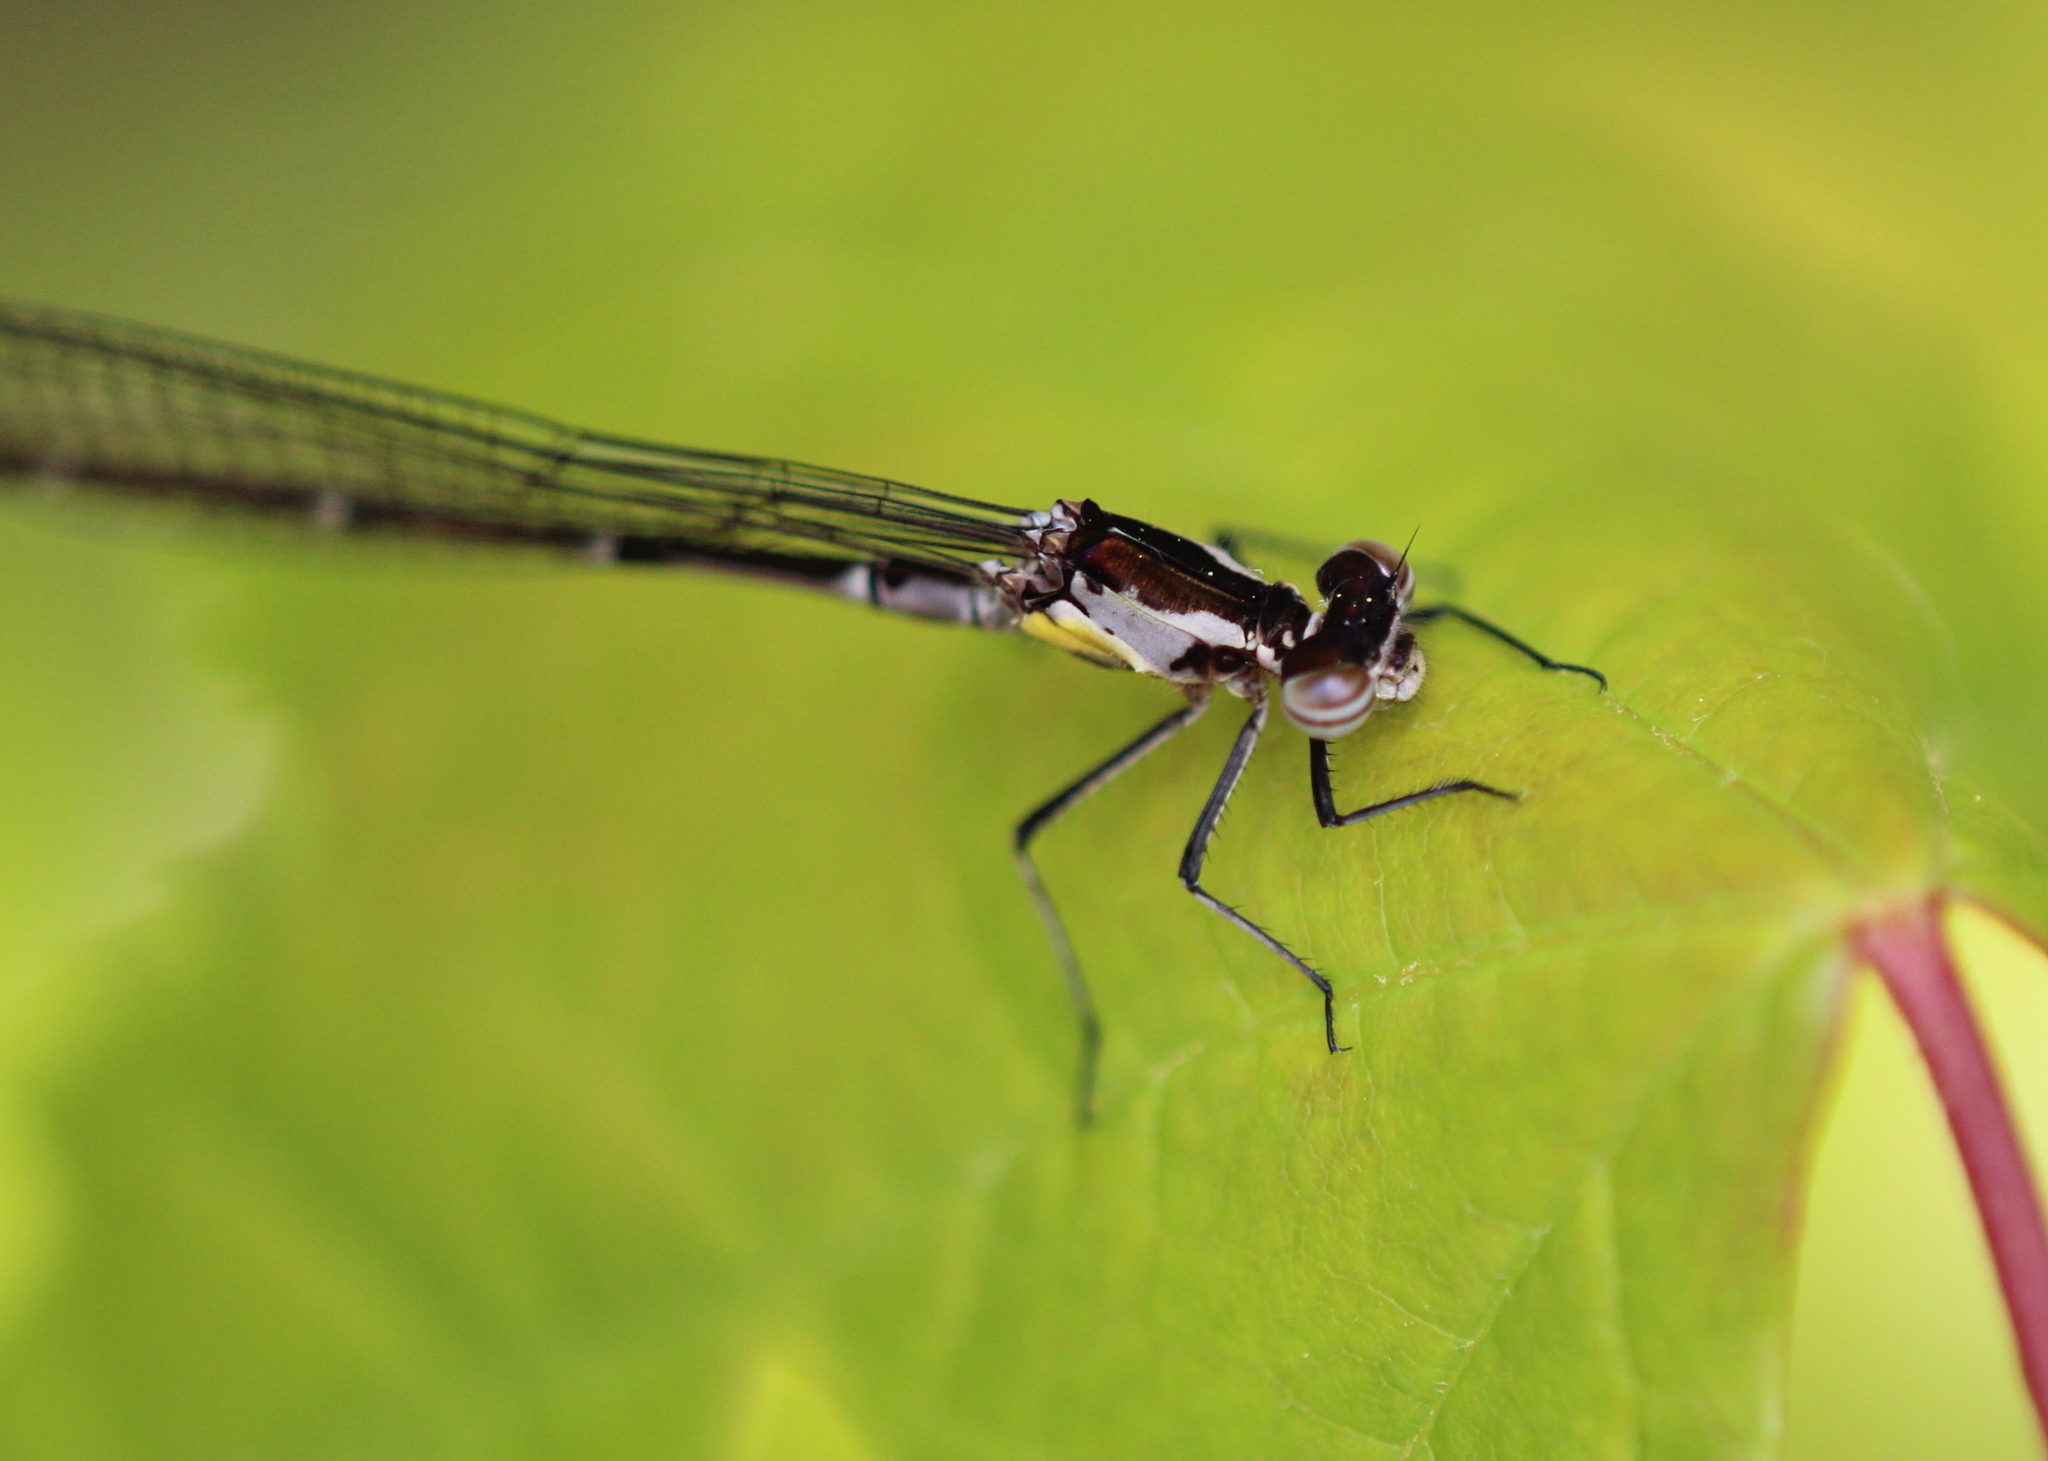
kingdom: Animalia
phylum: Arthropoda
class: Insecta
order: Odonata
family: Coenagrionidae
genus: Chromagrion
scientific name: Chromagrion conditum
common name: Aurora damsel
